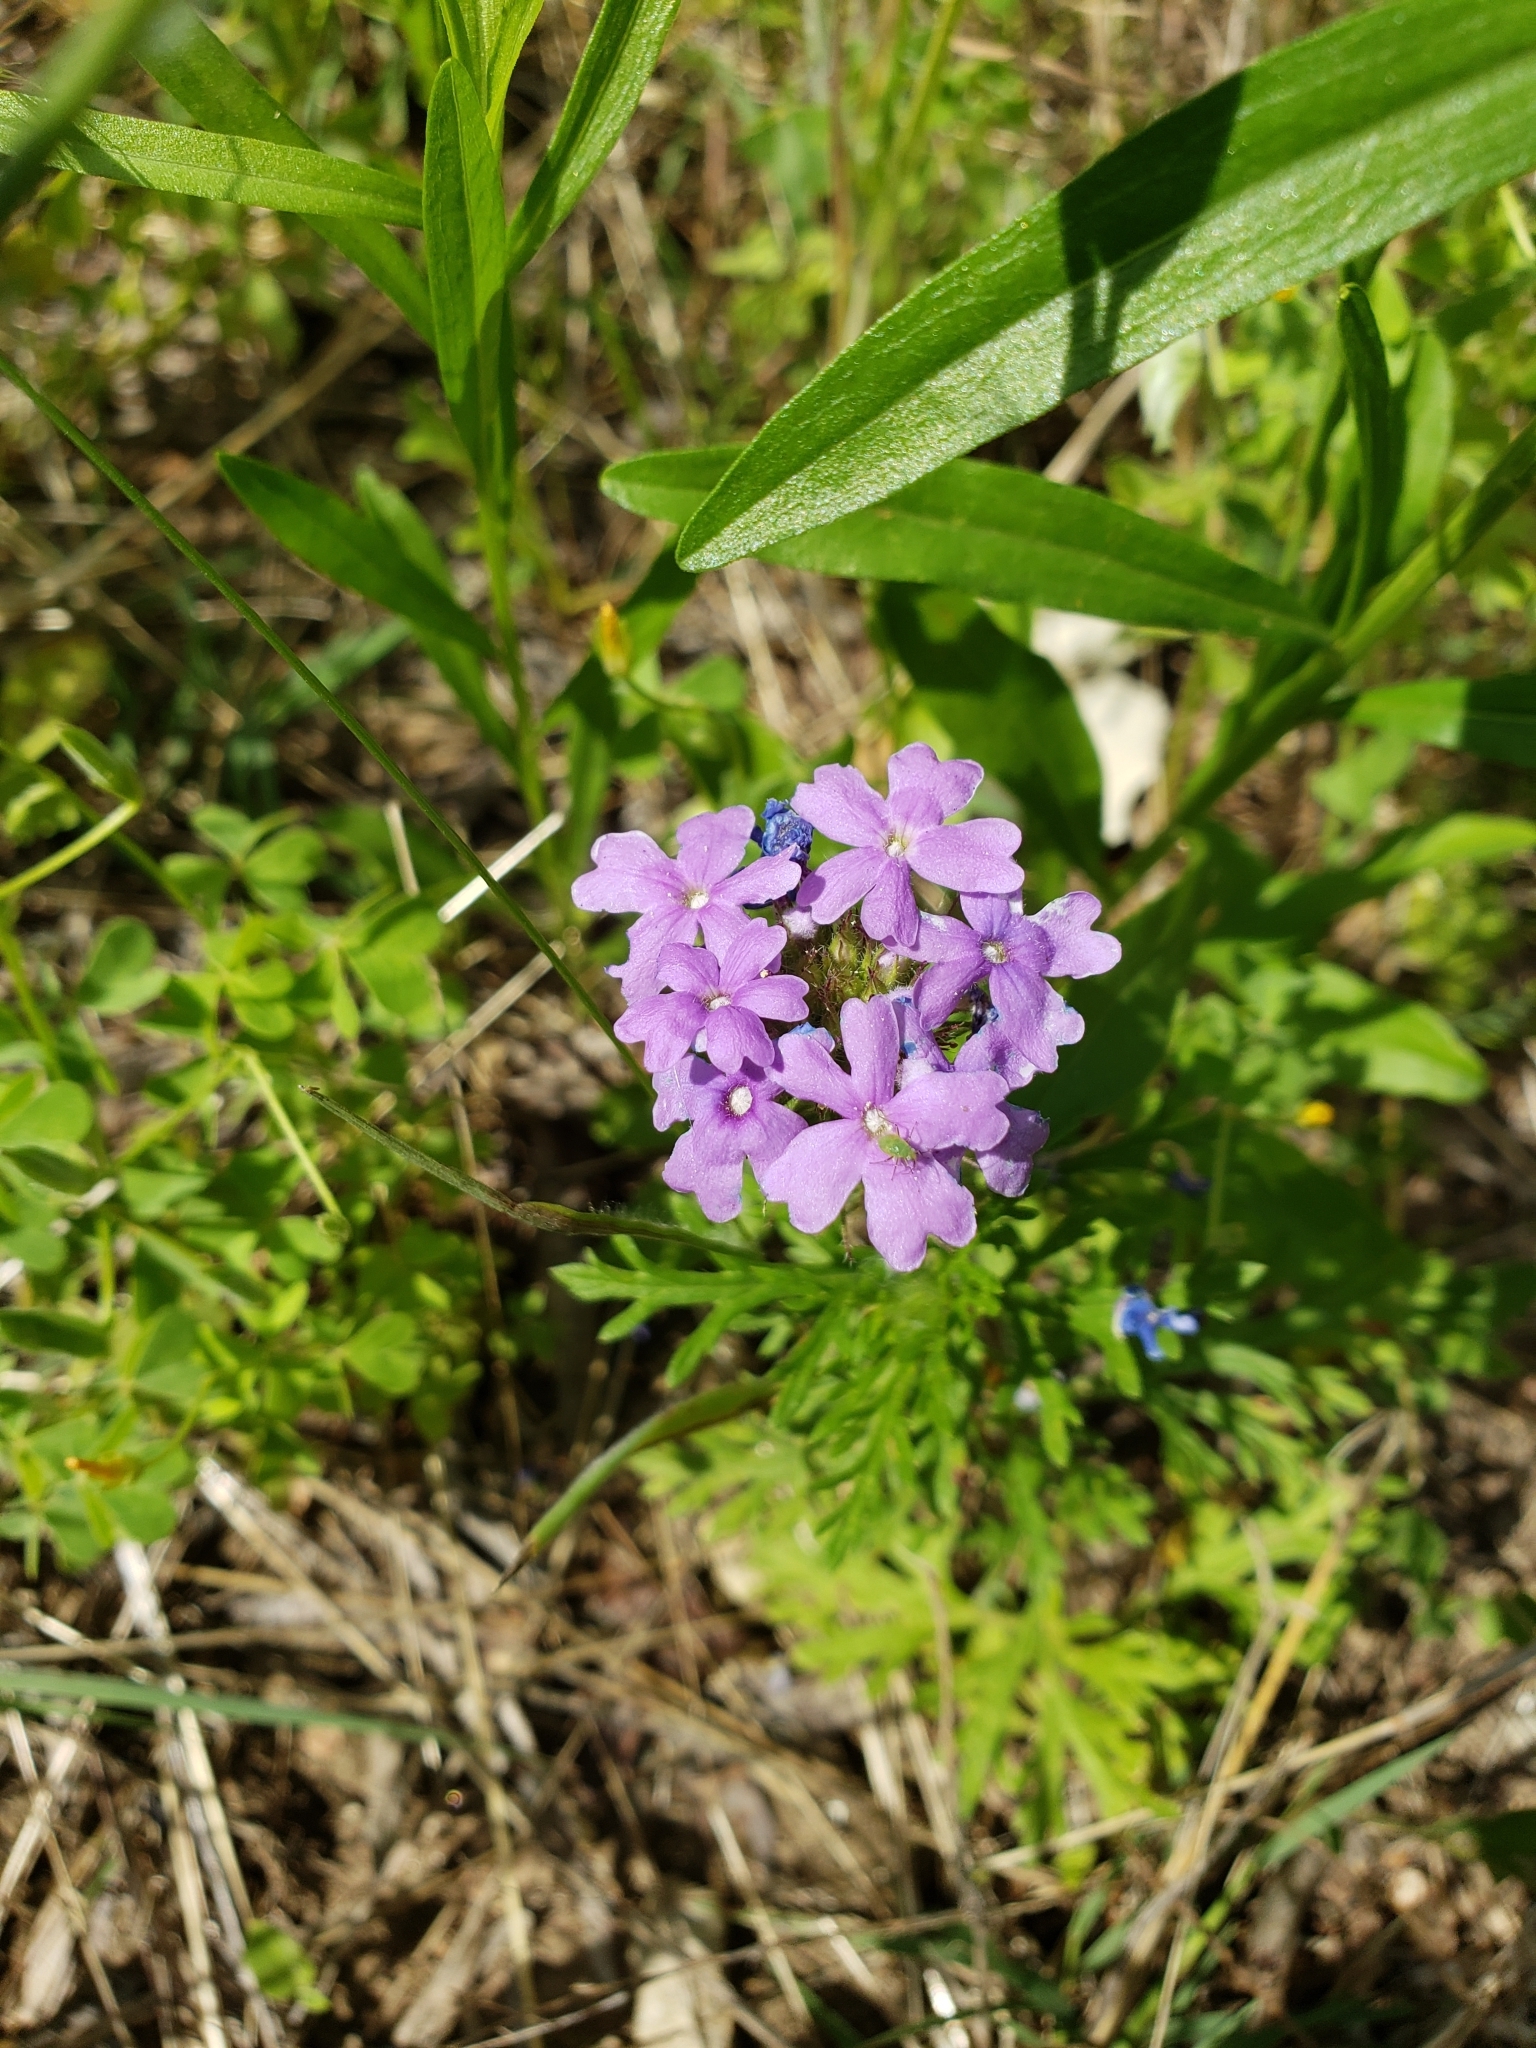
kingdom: Plantae
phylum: Tracheophyta
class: Magnoliopsida
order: Lamiales
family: Verbenaceae
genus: Verbena
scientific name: Verbena bipinnatifida
